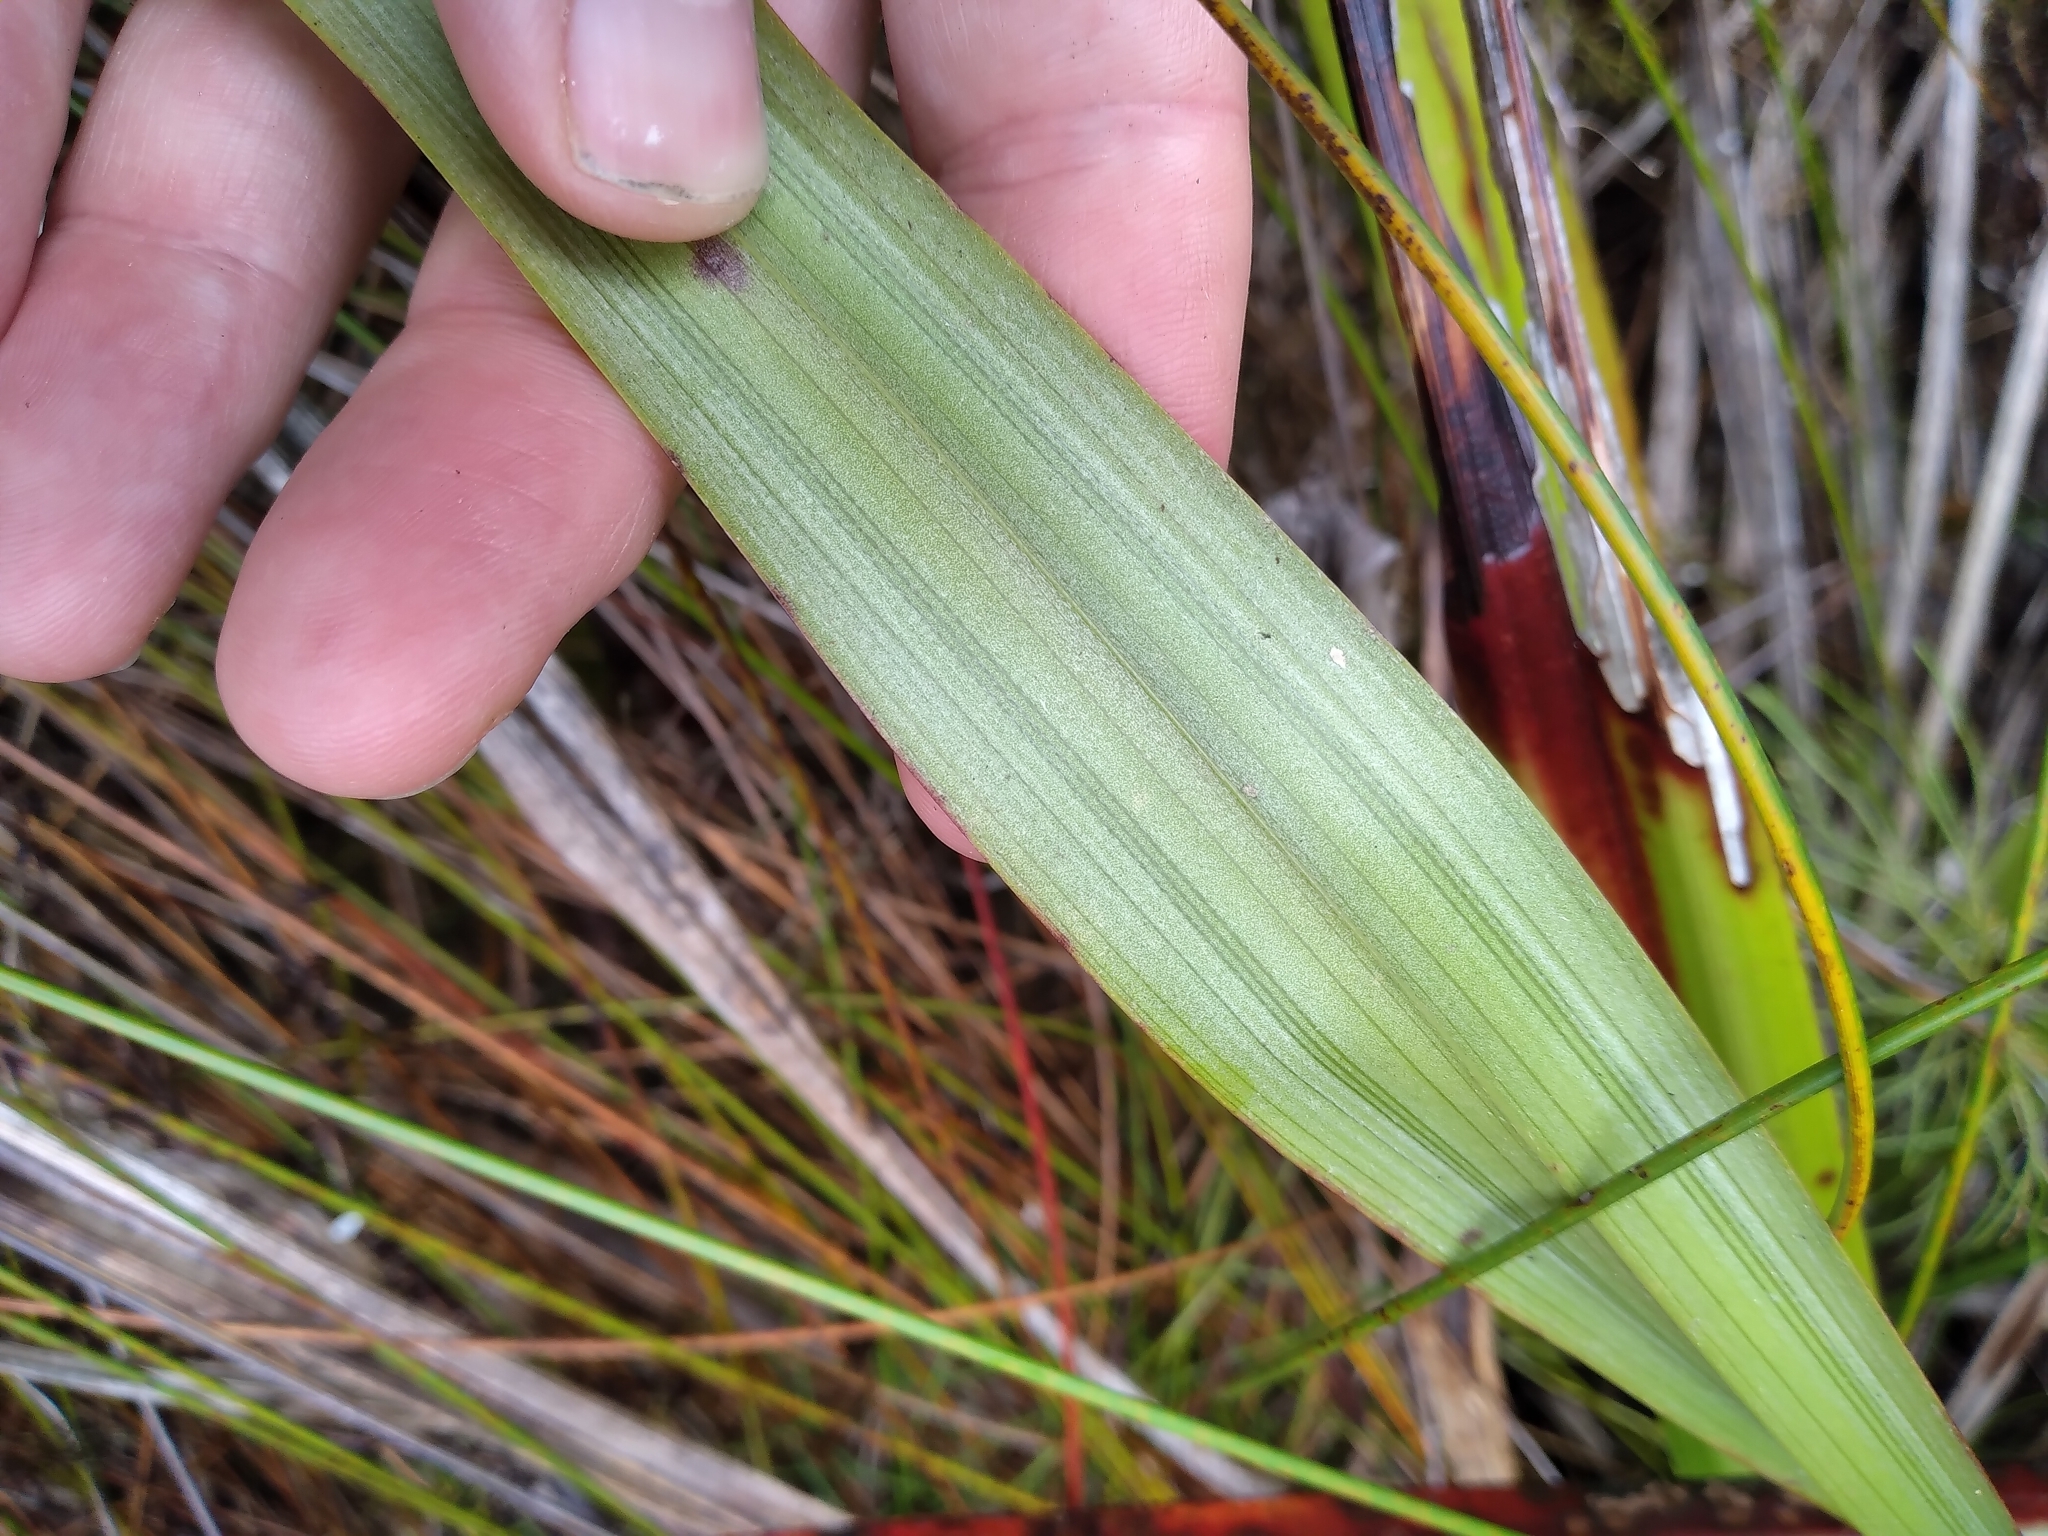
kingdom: Plantae
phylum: Tracheophyta
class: Liliopsida
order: Asparagales
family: Asteliaceae
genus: Astelia
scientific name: Astelia trinervia
